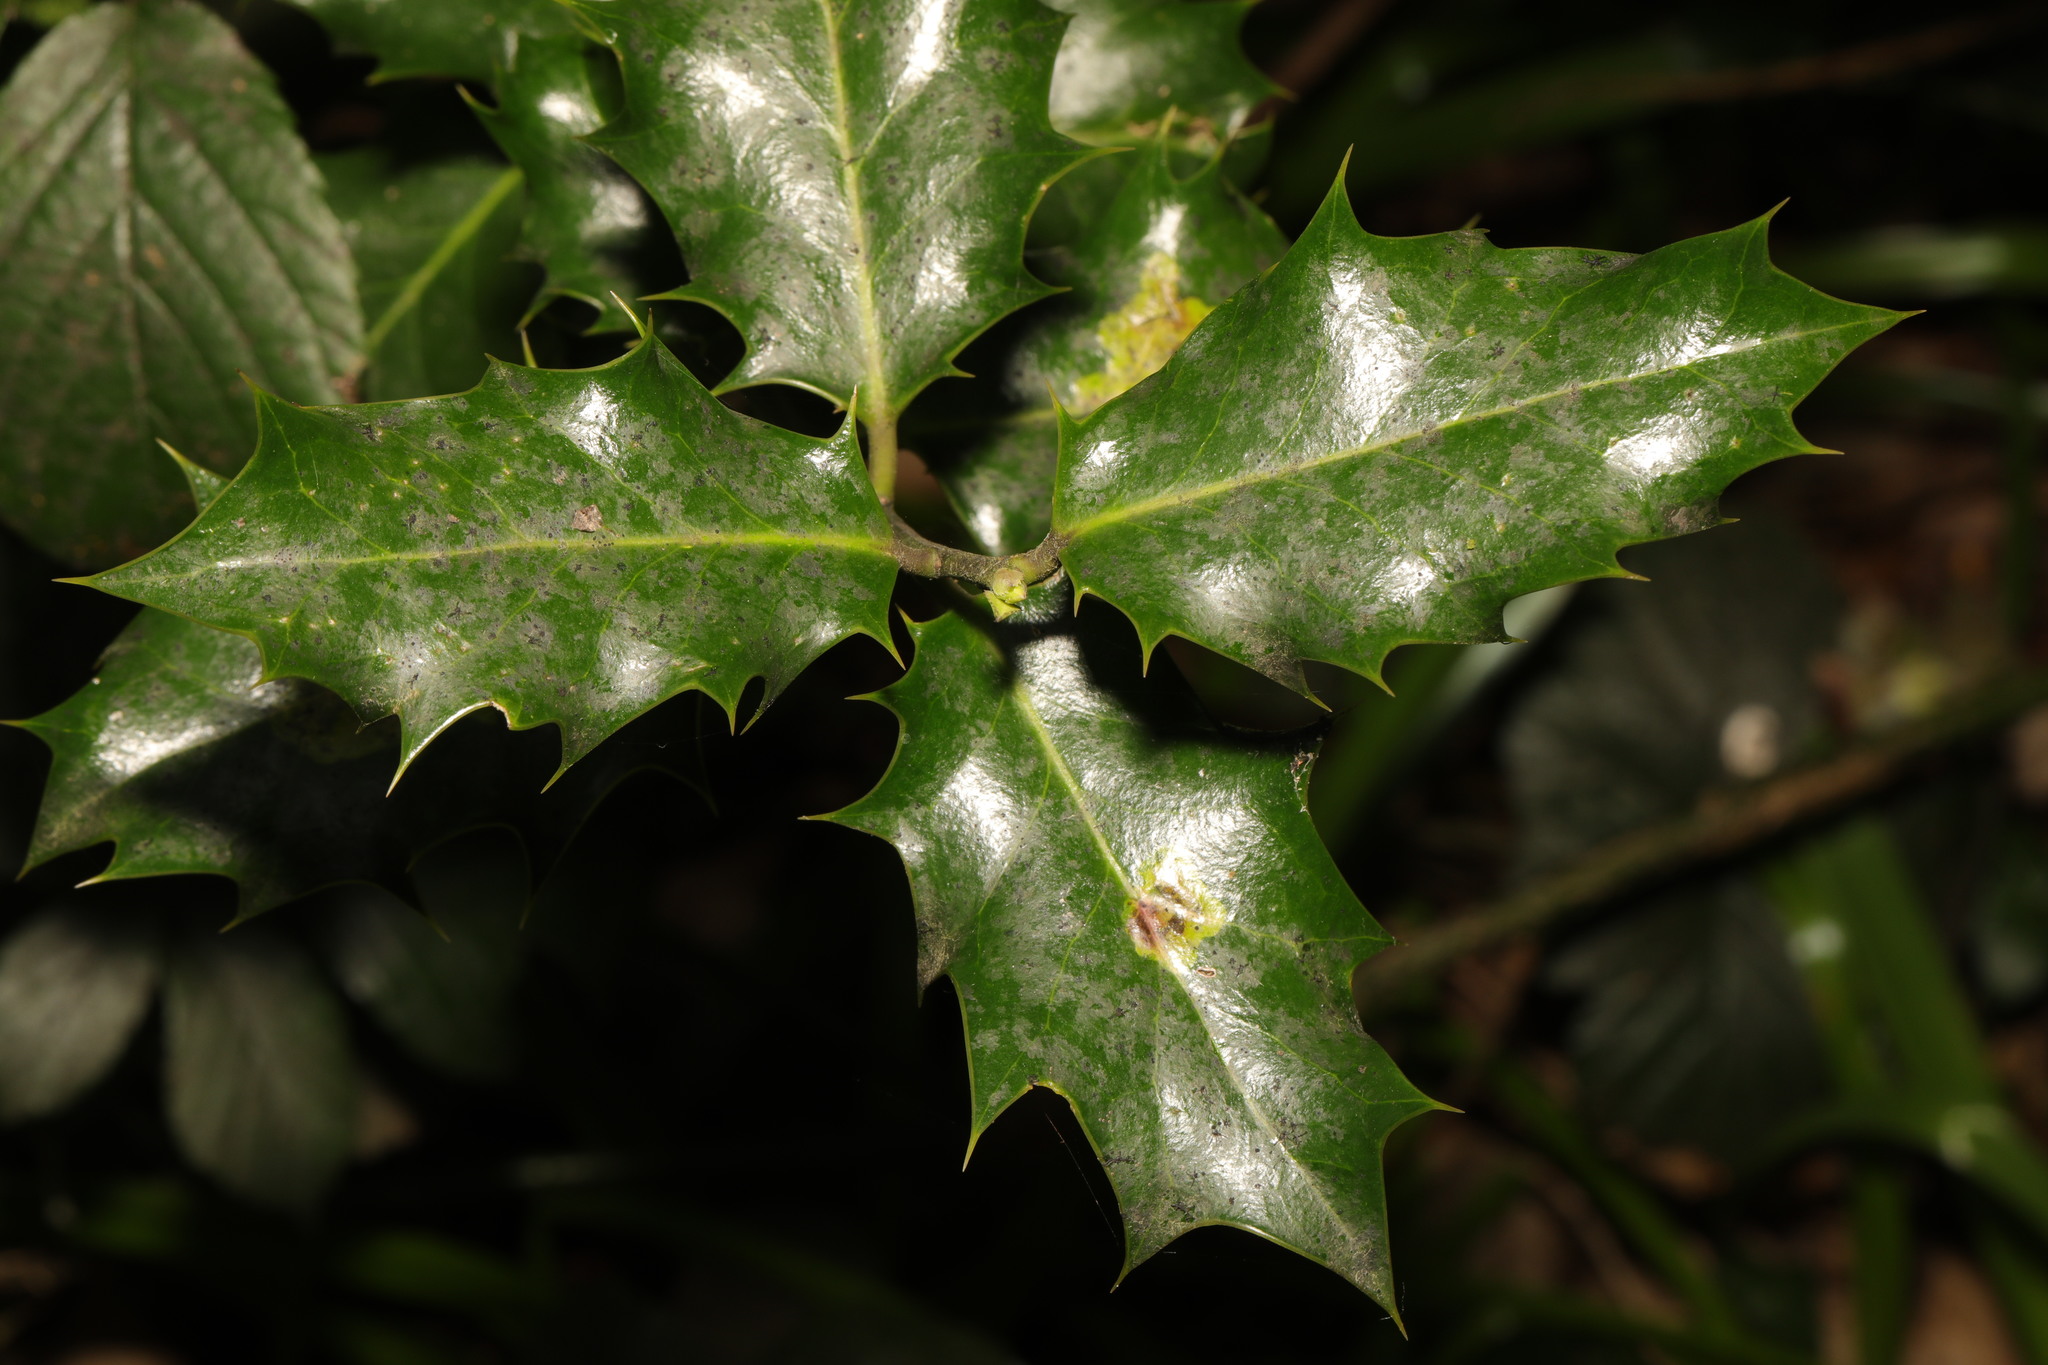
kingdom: Plantae
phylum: Tracheophyta
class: Magnoliopsida
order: Aquifoliales
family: Aquifoliaceae
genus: Ilex
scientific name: Ilex aquifolium
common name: English holly
